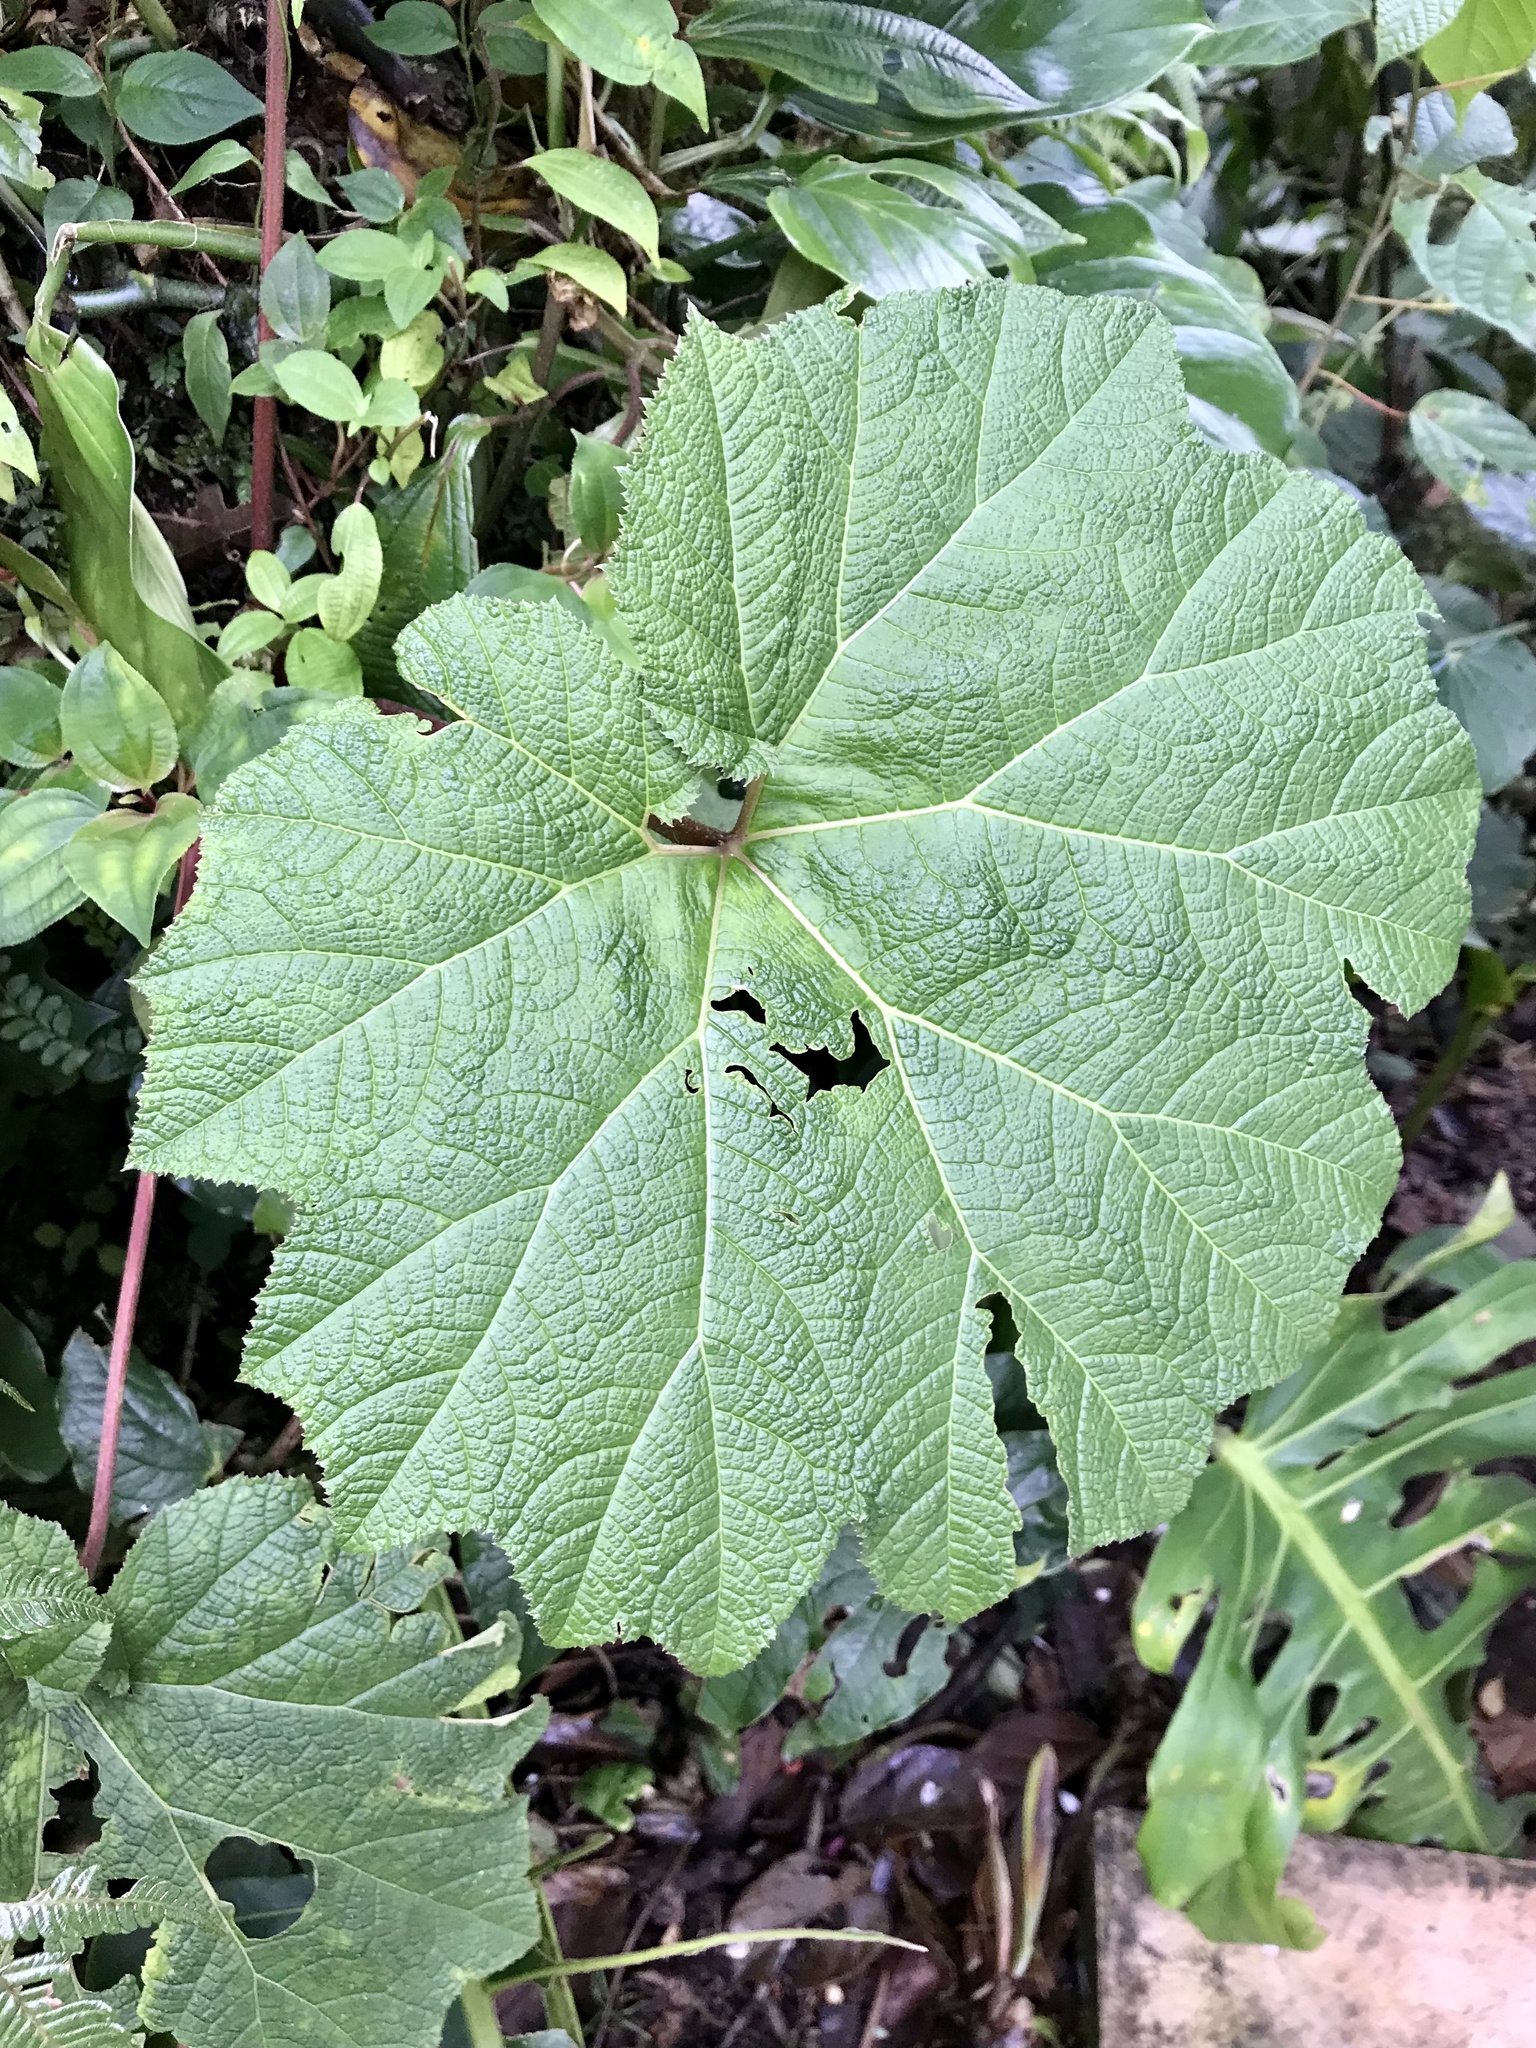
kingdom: Plantae
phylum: Tracheophyta
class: Magnoliopsida
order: Gunnerales
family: Gunneraceae
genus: Gunnera
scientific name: Gunnera insignis
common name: Poorman's umbrella
